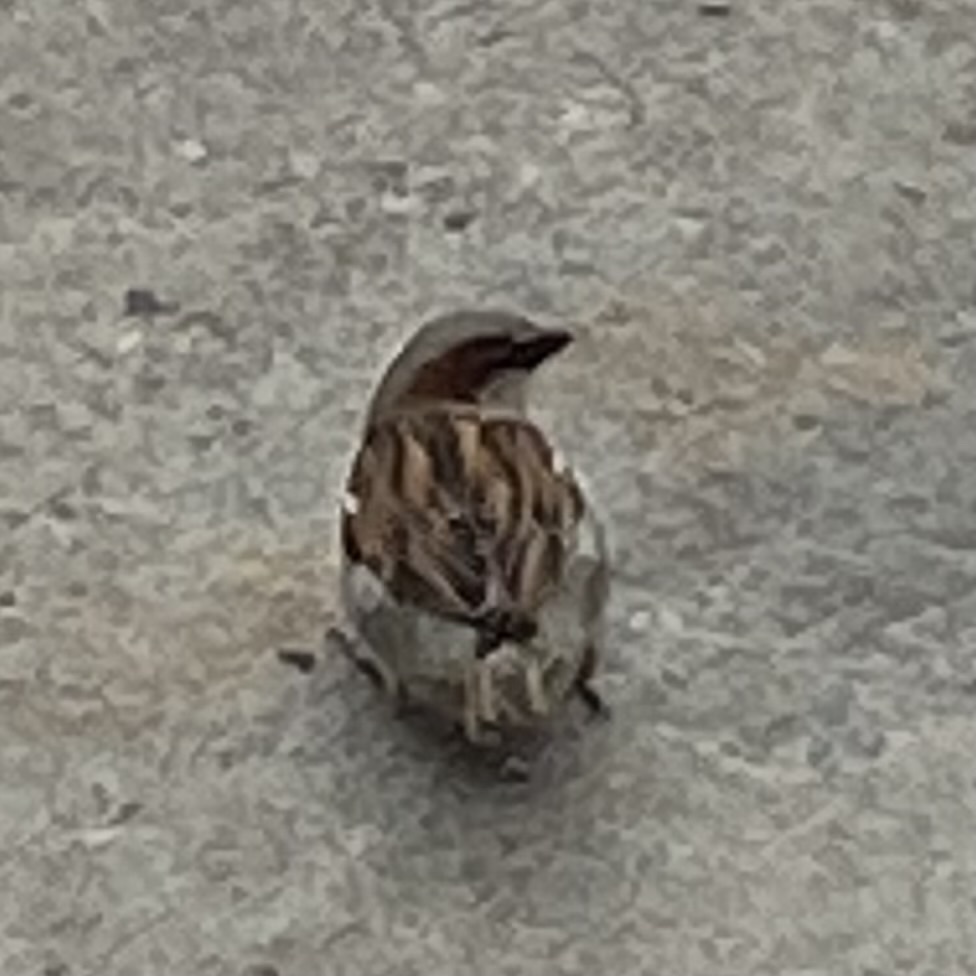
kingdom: Animalia
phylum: Chordata
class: Aves
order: Passeriformes
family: Passeridae
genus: Passer
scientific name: Passer domesticus
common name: House sparrow
